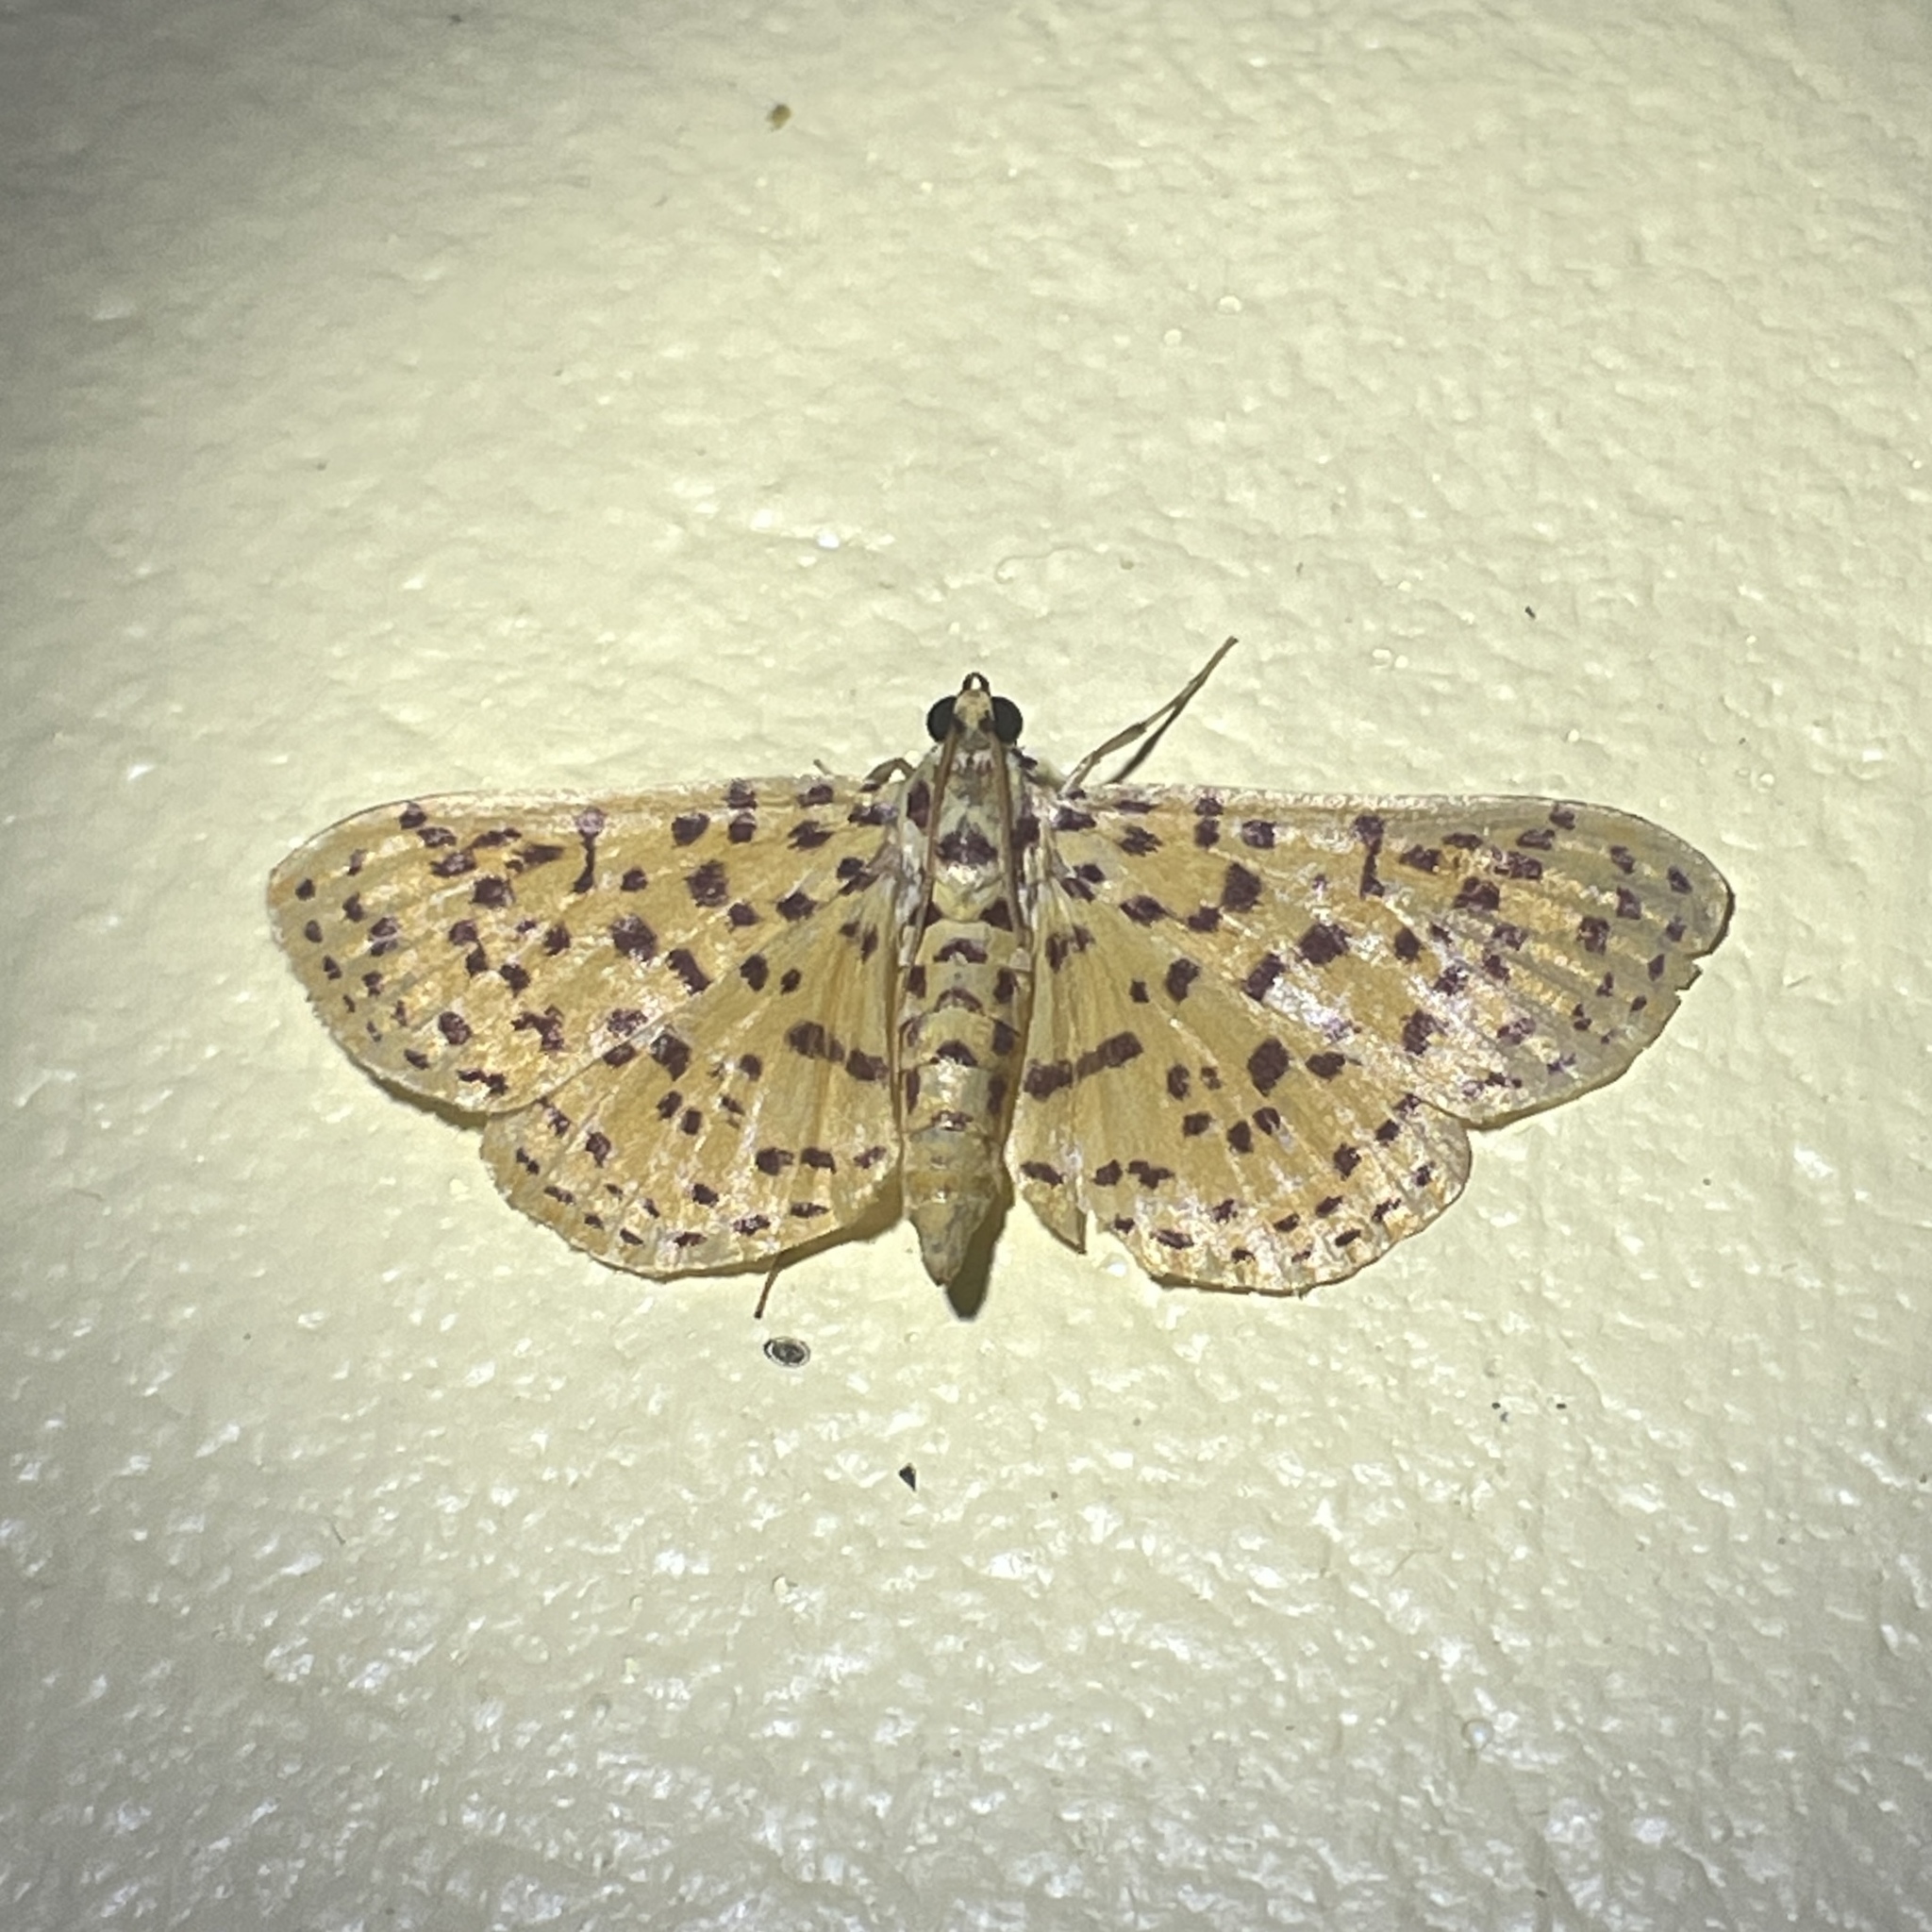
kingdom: Animalia
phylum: Arthropoda
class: Insecta
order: Lepidoptera
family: Crambidae
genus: Polygrammodes
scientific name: Polygrammodes elevata
